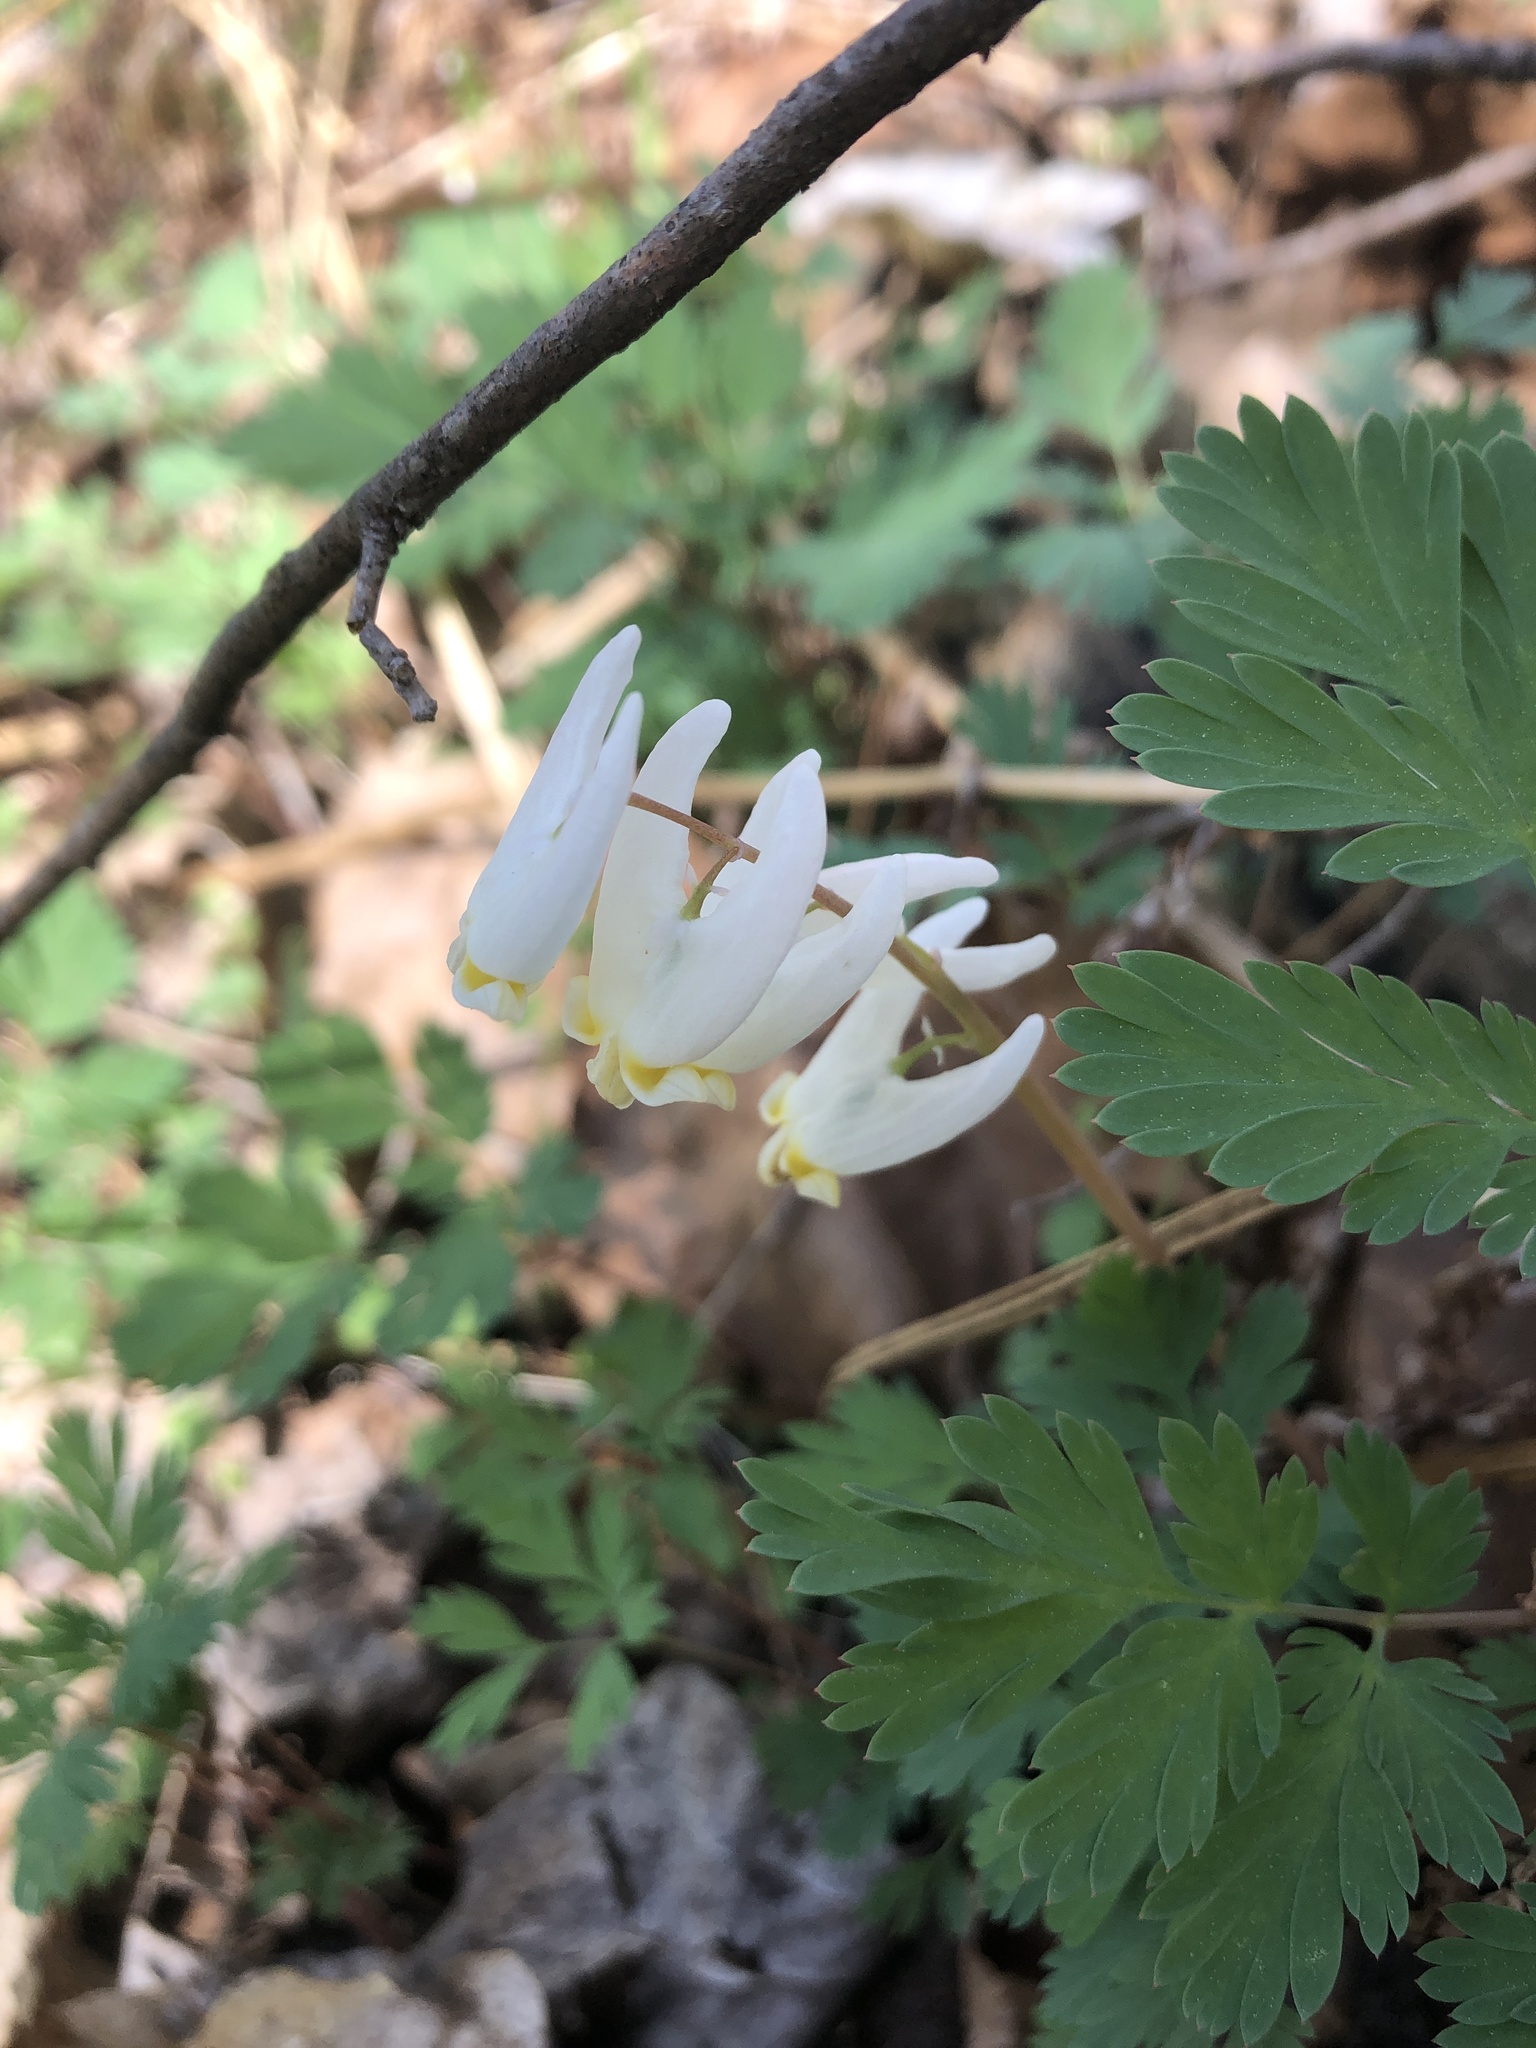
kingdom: Plantae
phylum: Tracheophyta
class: Magnoliopsida
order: Ranunculales
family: Papaveraceae
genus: Dicentra
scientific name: Dicentra cucullaria
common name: Dutchman's breeches
